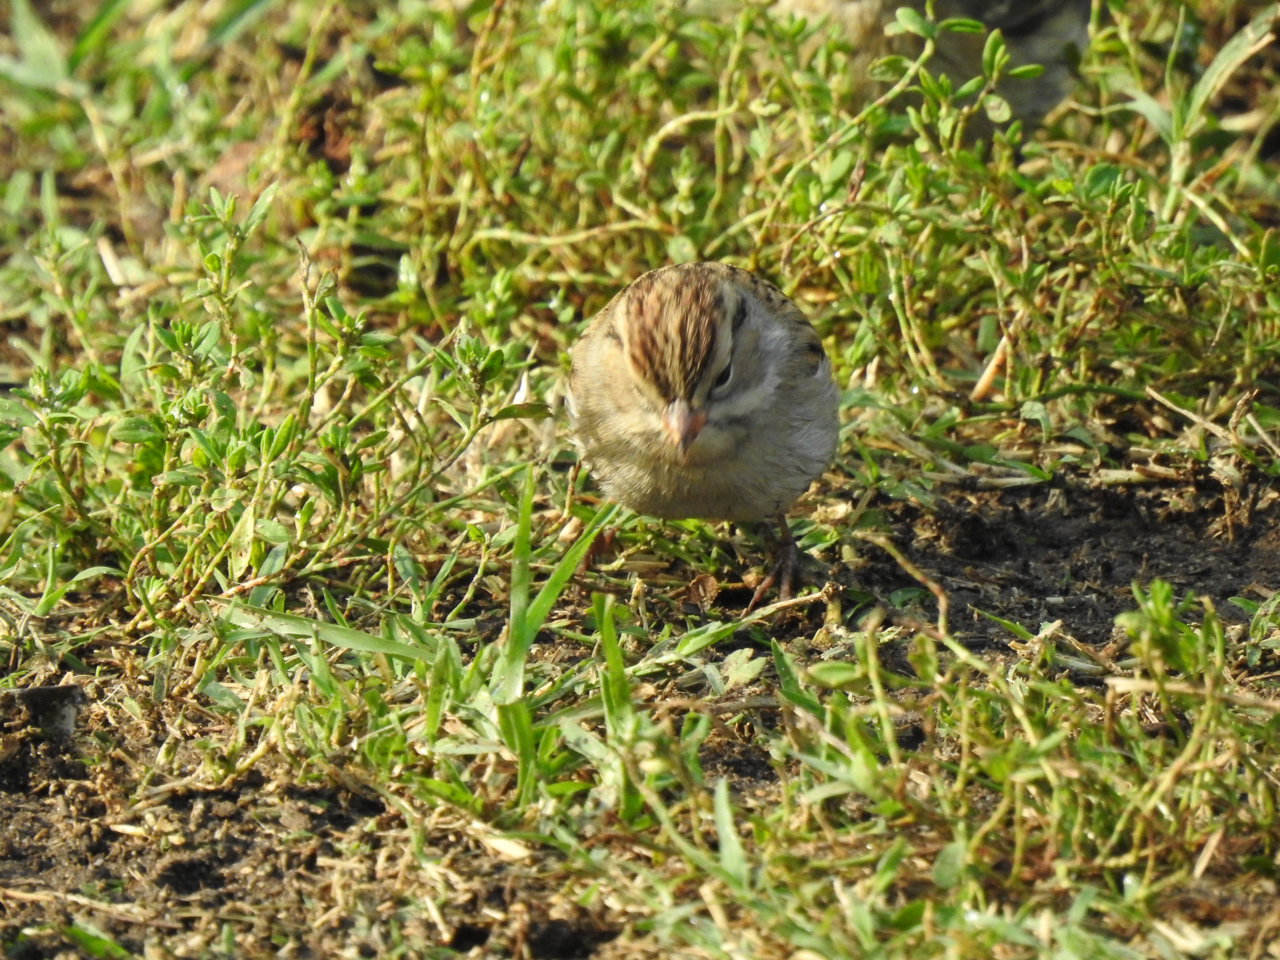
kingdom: Animalia
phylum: Chordata
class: Aves
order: Passeriformes
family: Passerellidae
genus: Spizella
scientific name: Spizella passerina
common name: Chipping sparrow
